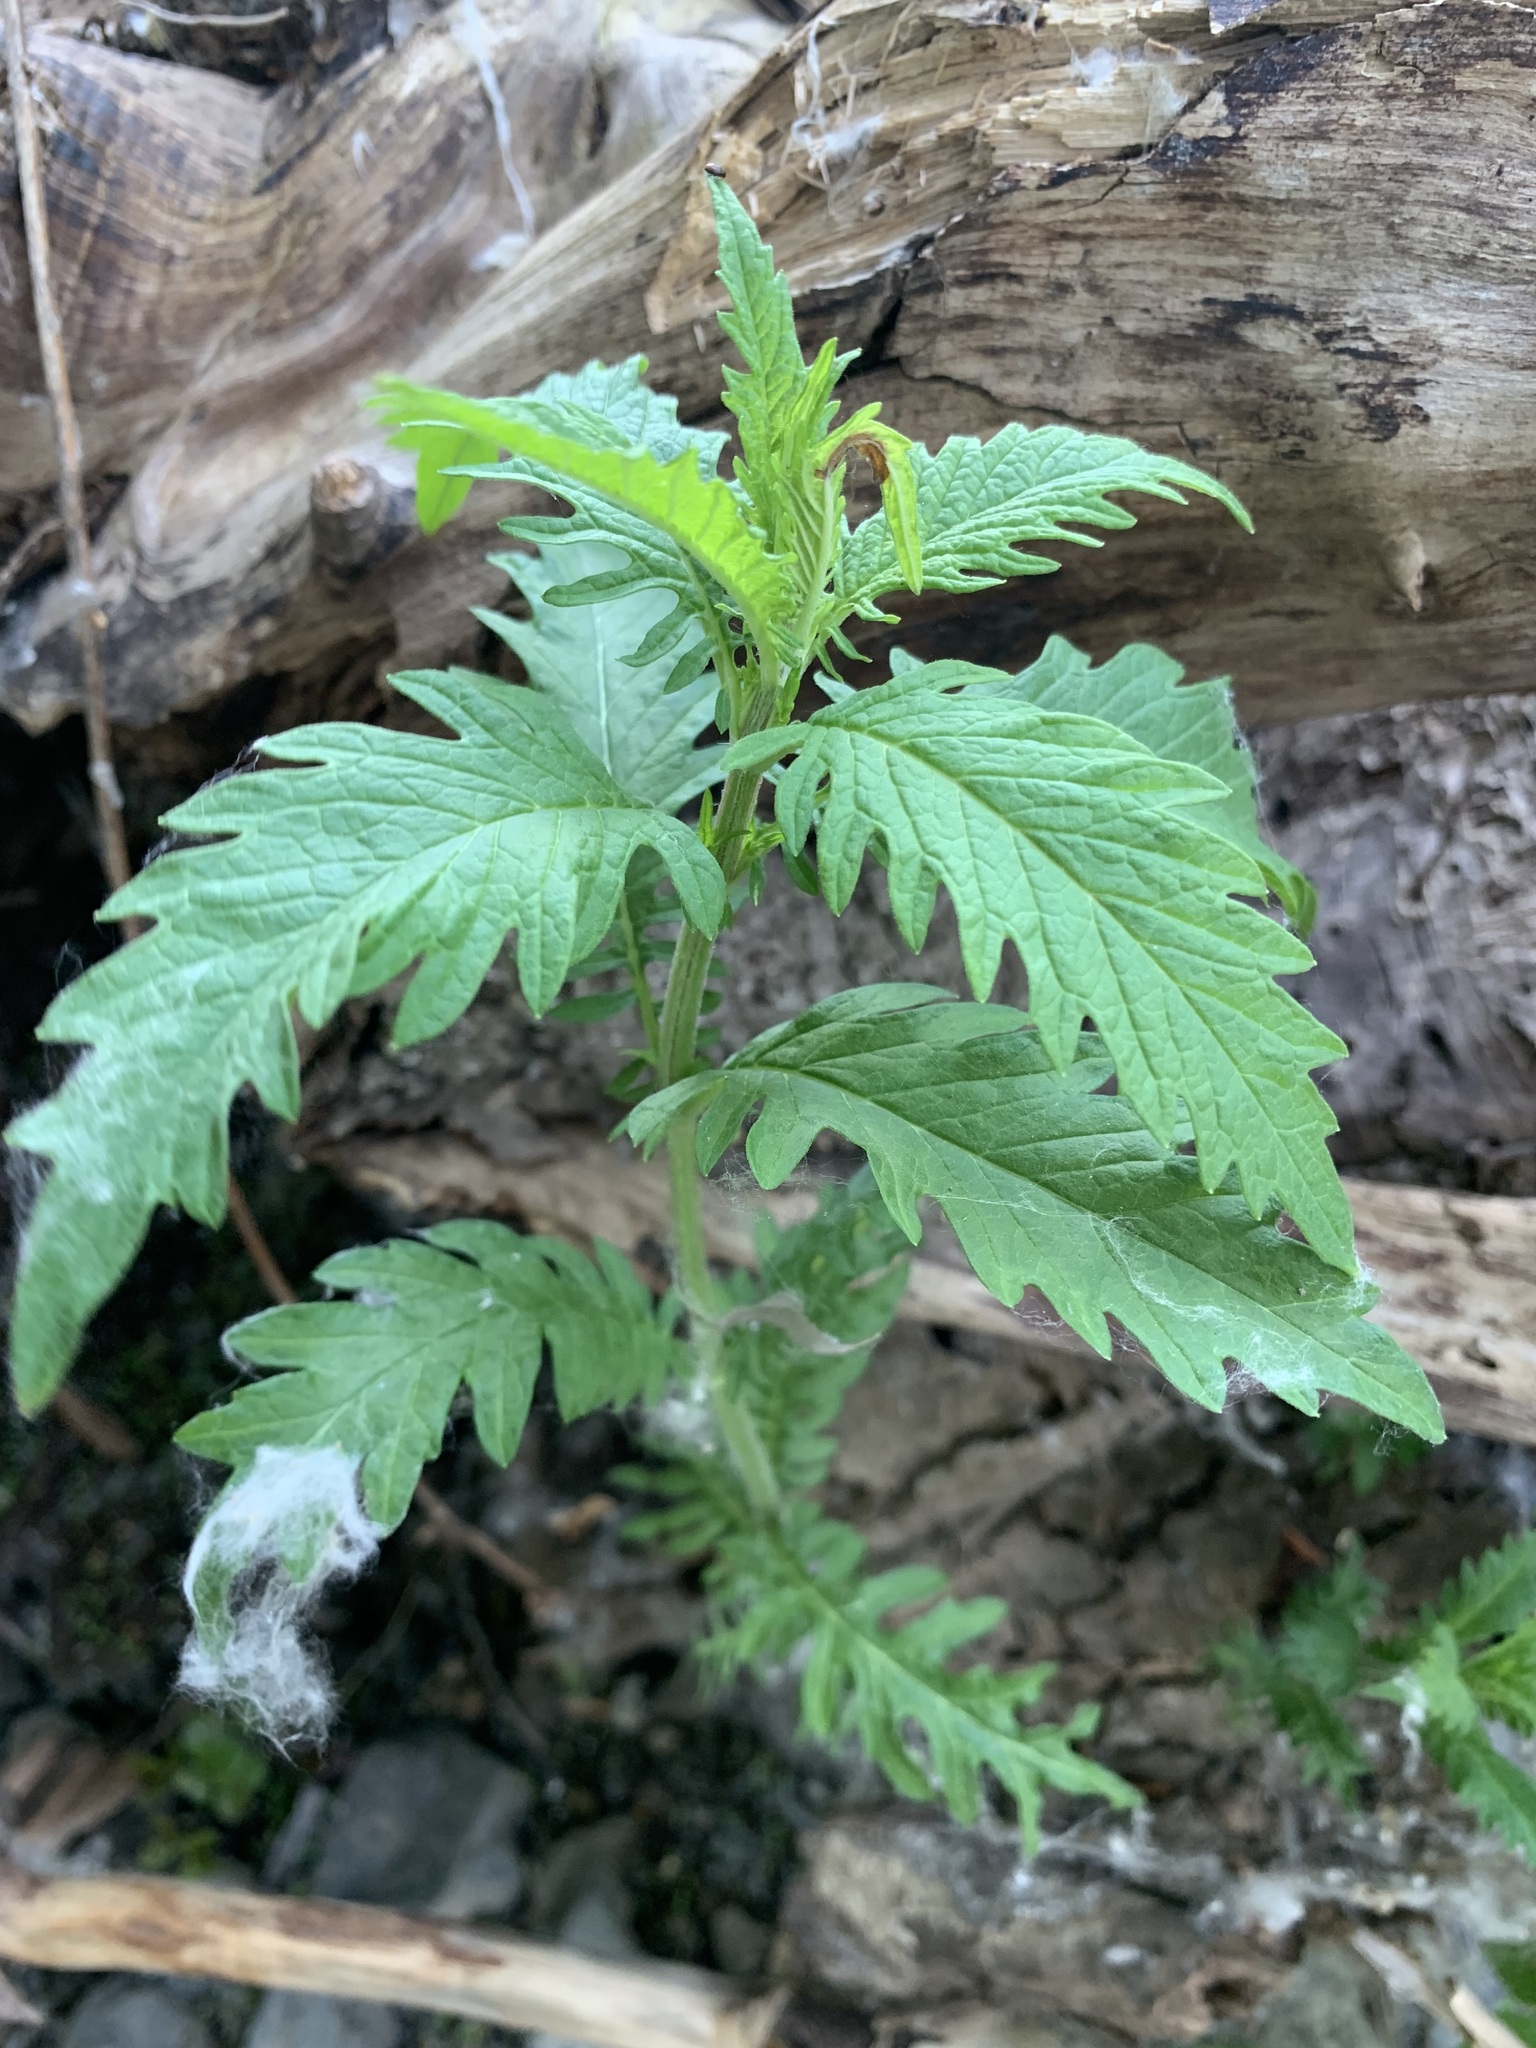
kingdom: Plantae
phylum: Tracheophyta
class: Magnoliopsida
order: Lamiales
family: Lamiaceae
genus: Lycopus
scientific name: Lycopus europaeus
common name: European bugleweed
